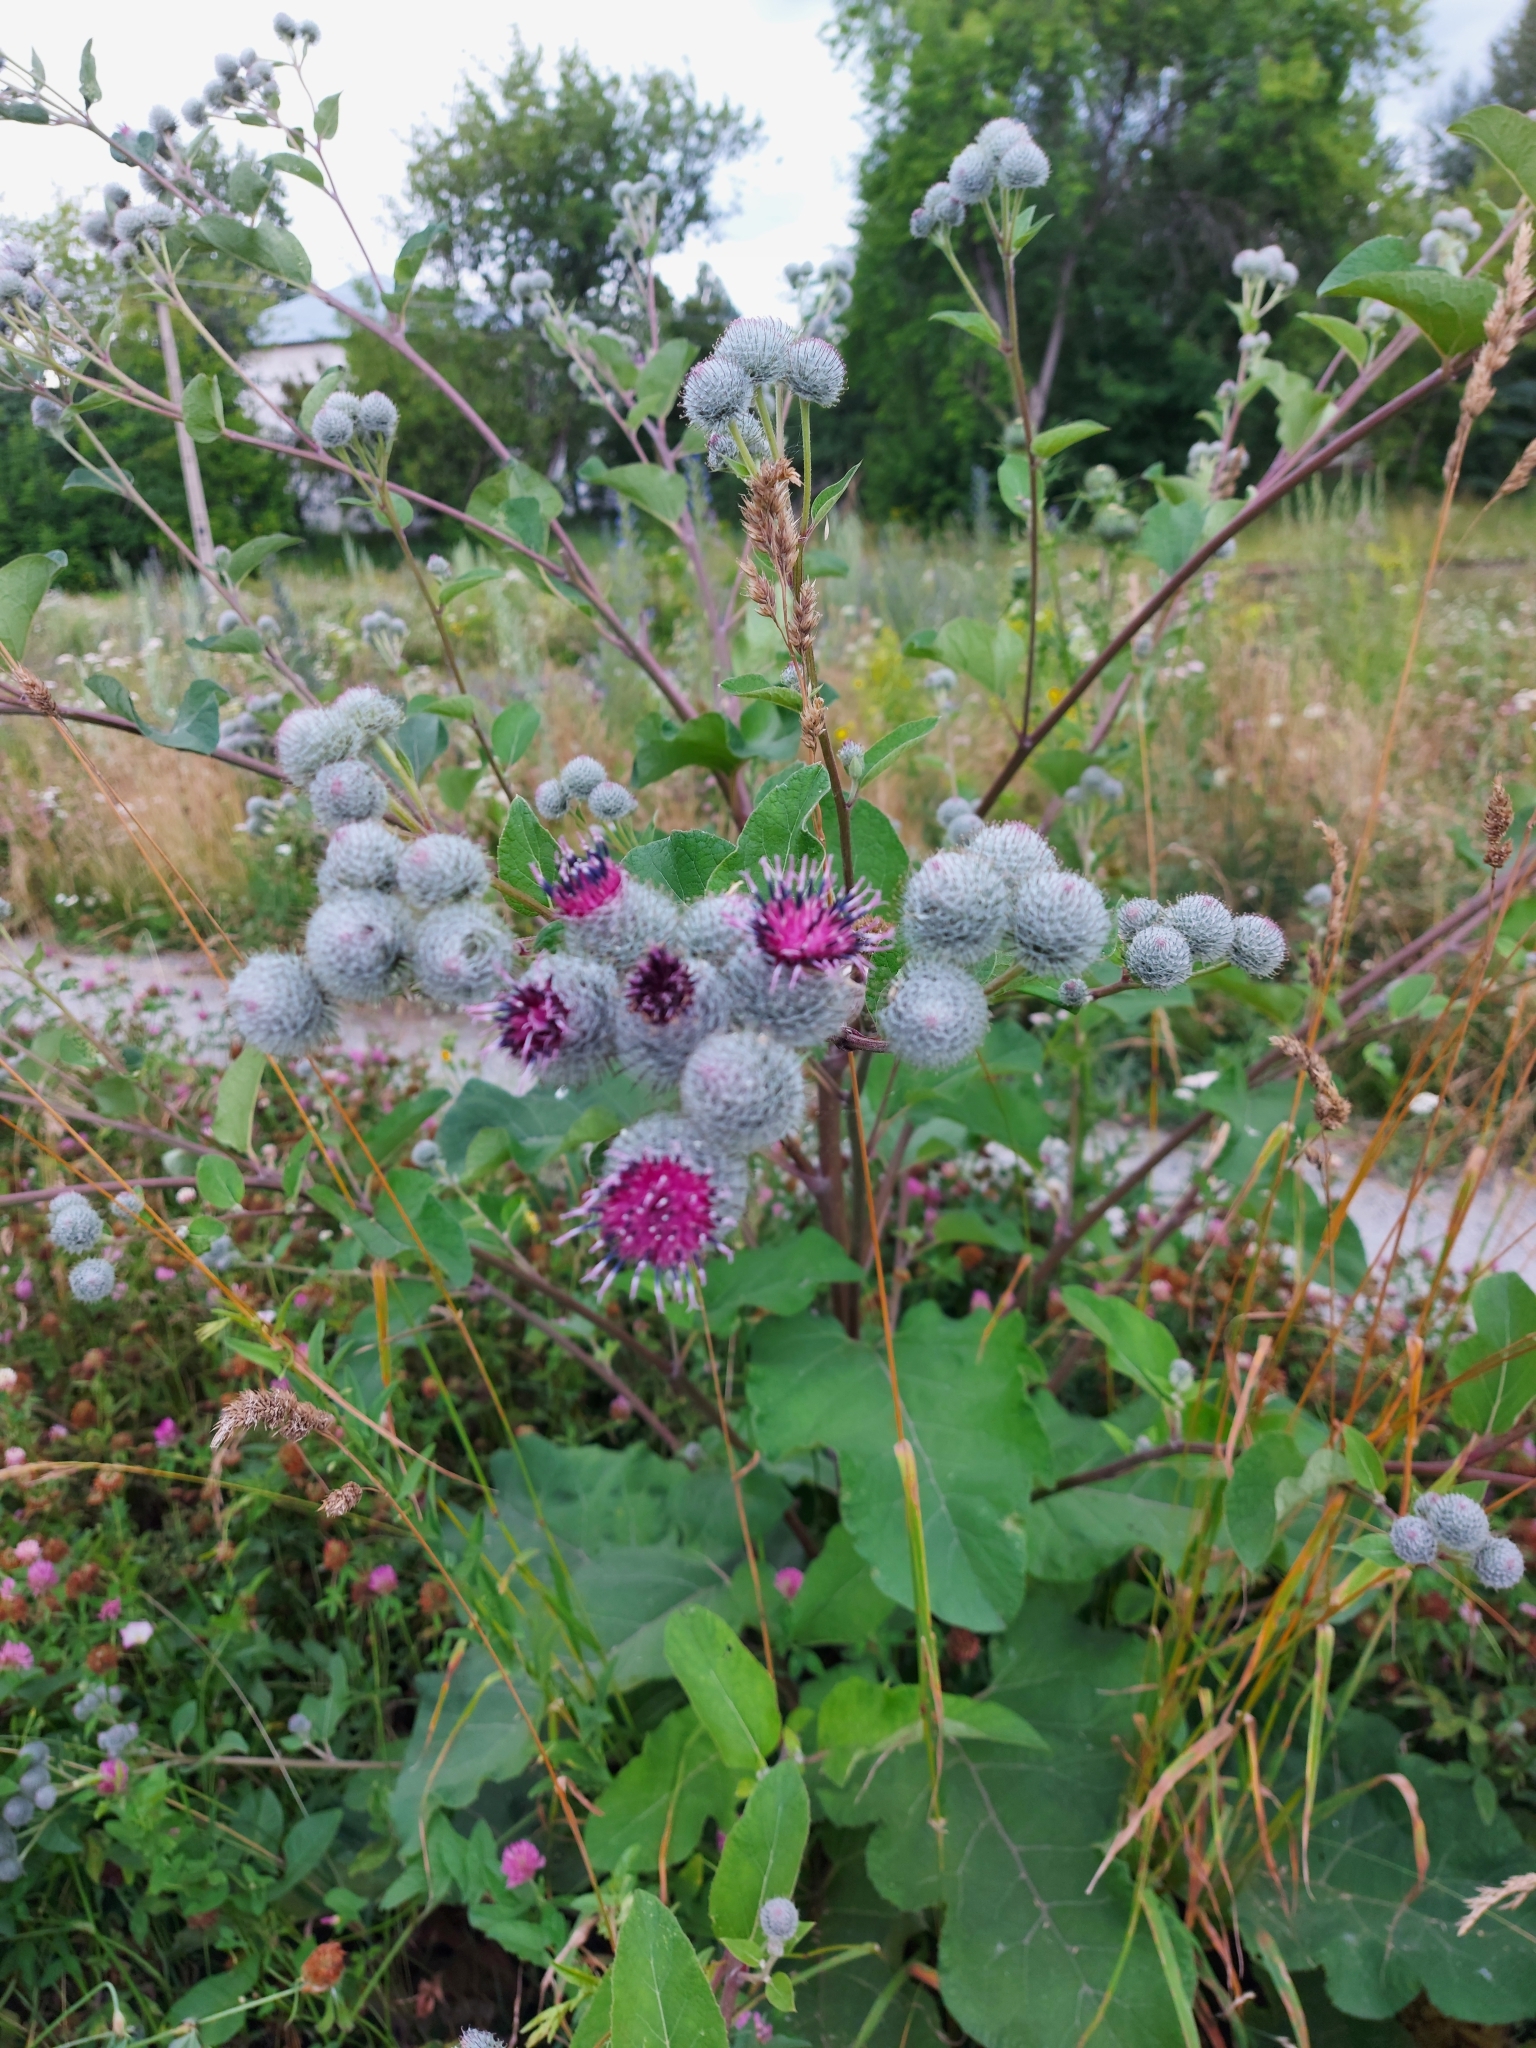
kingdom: Plantae
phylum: Tracheophyta
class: Magnoliopsida
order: Asterales
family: Asteraceae
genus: Arctium
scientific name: Arctium tomentosum
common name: Woolly burdock
